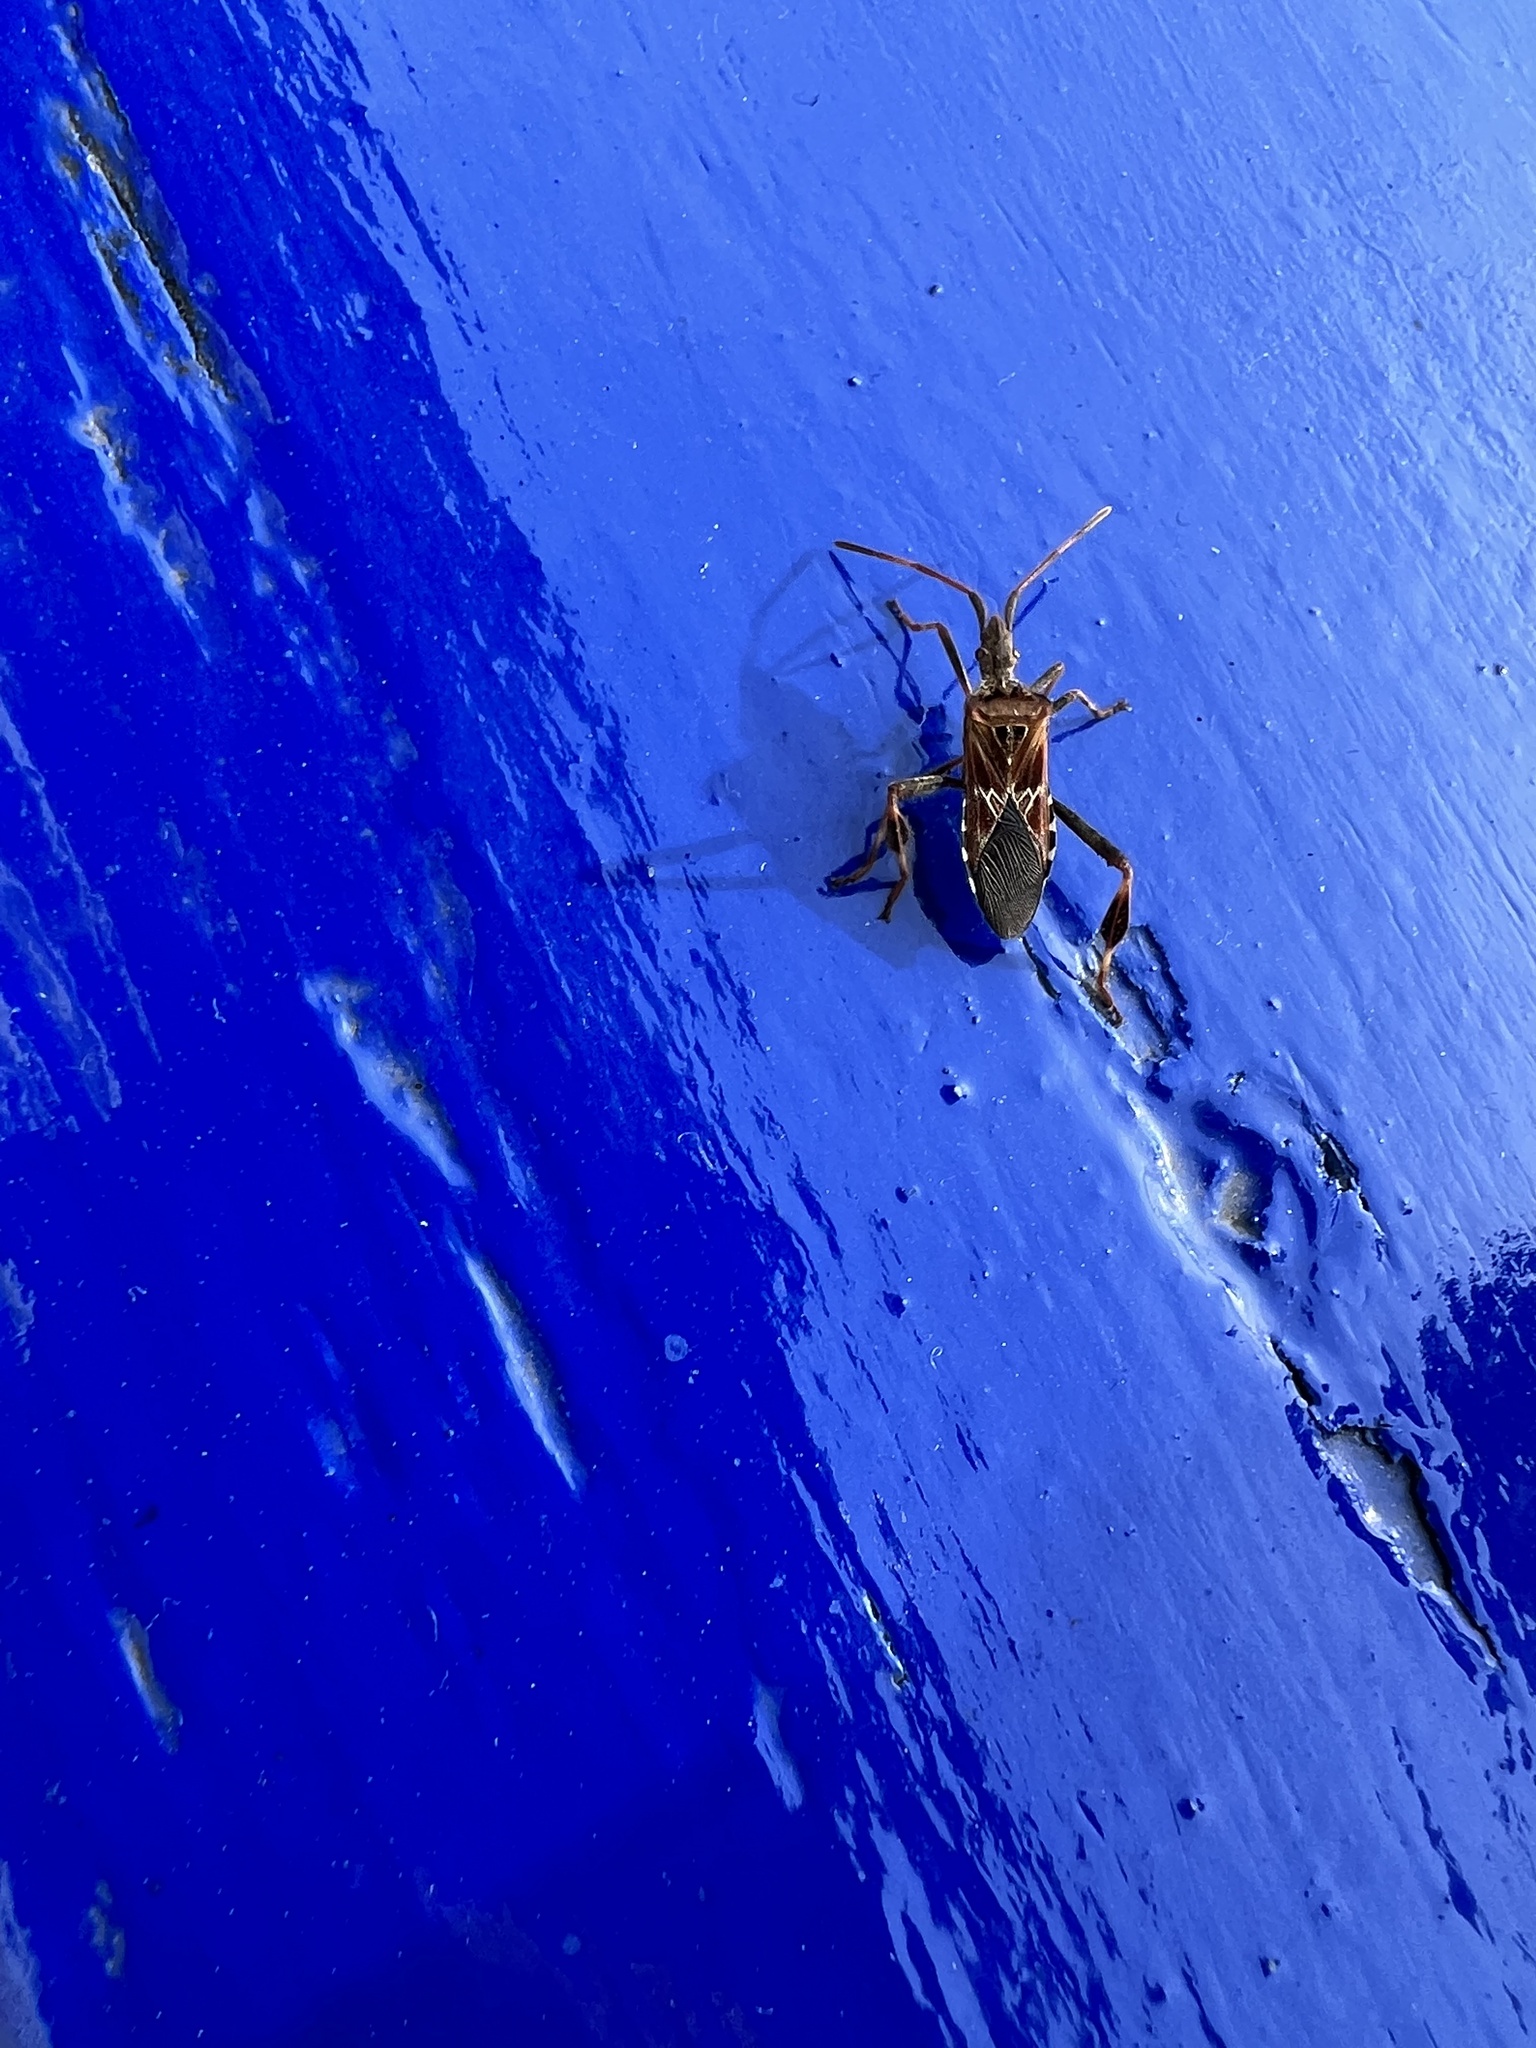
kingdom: Animalia
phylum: Arthropoda
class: Insecta
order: Hemiptera
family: Coreidae
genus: Leptoglossus
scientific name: Leptoglossus occidentalis
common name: Western conifer-seed bug
